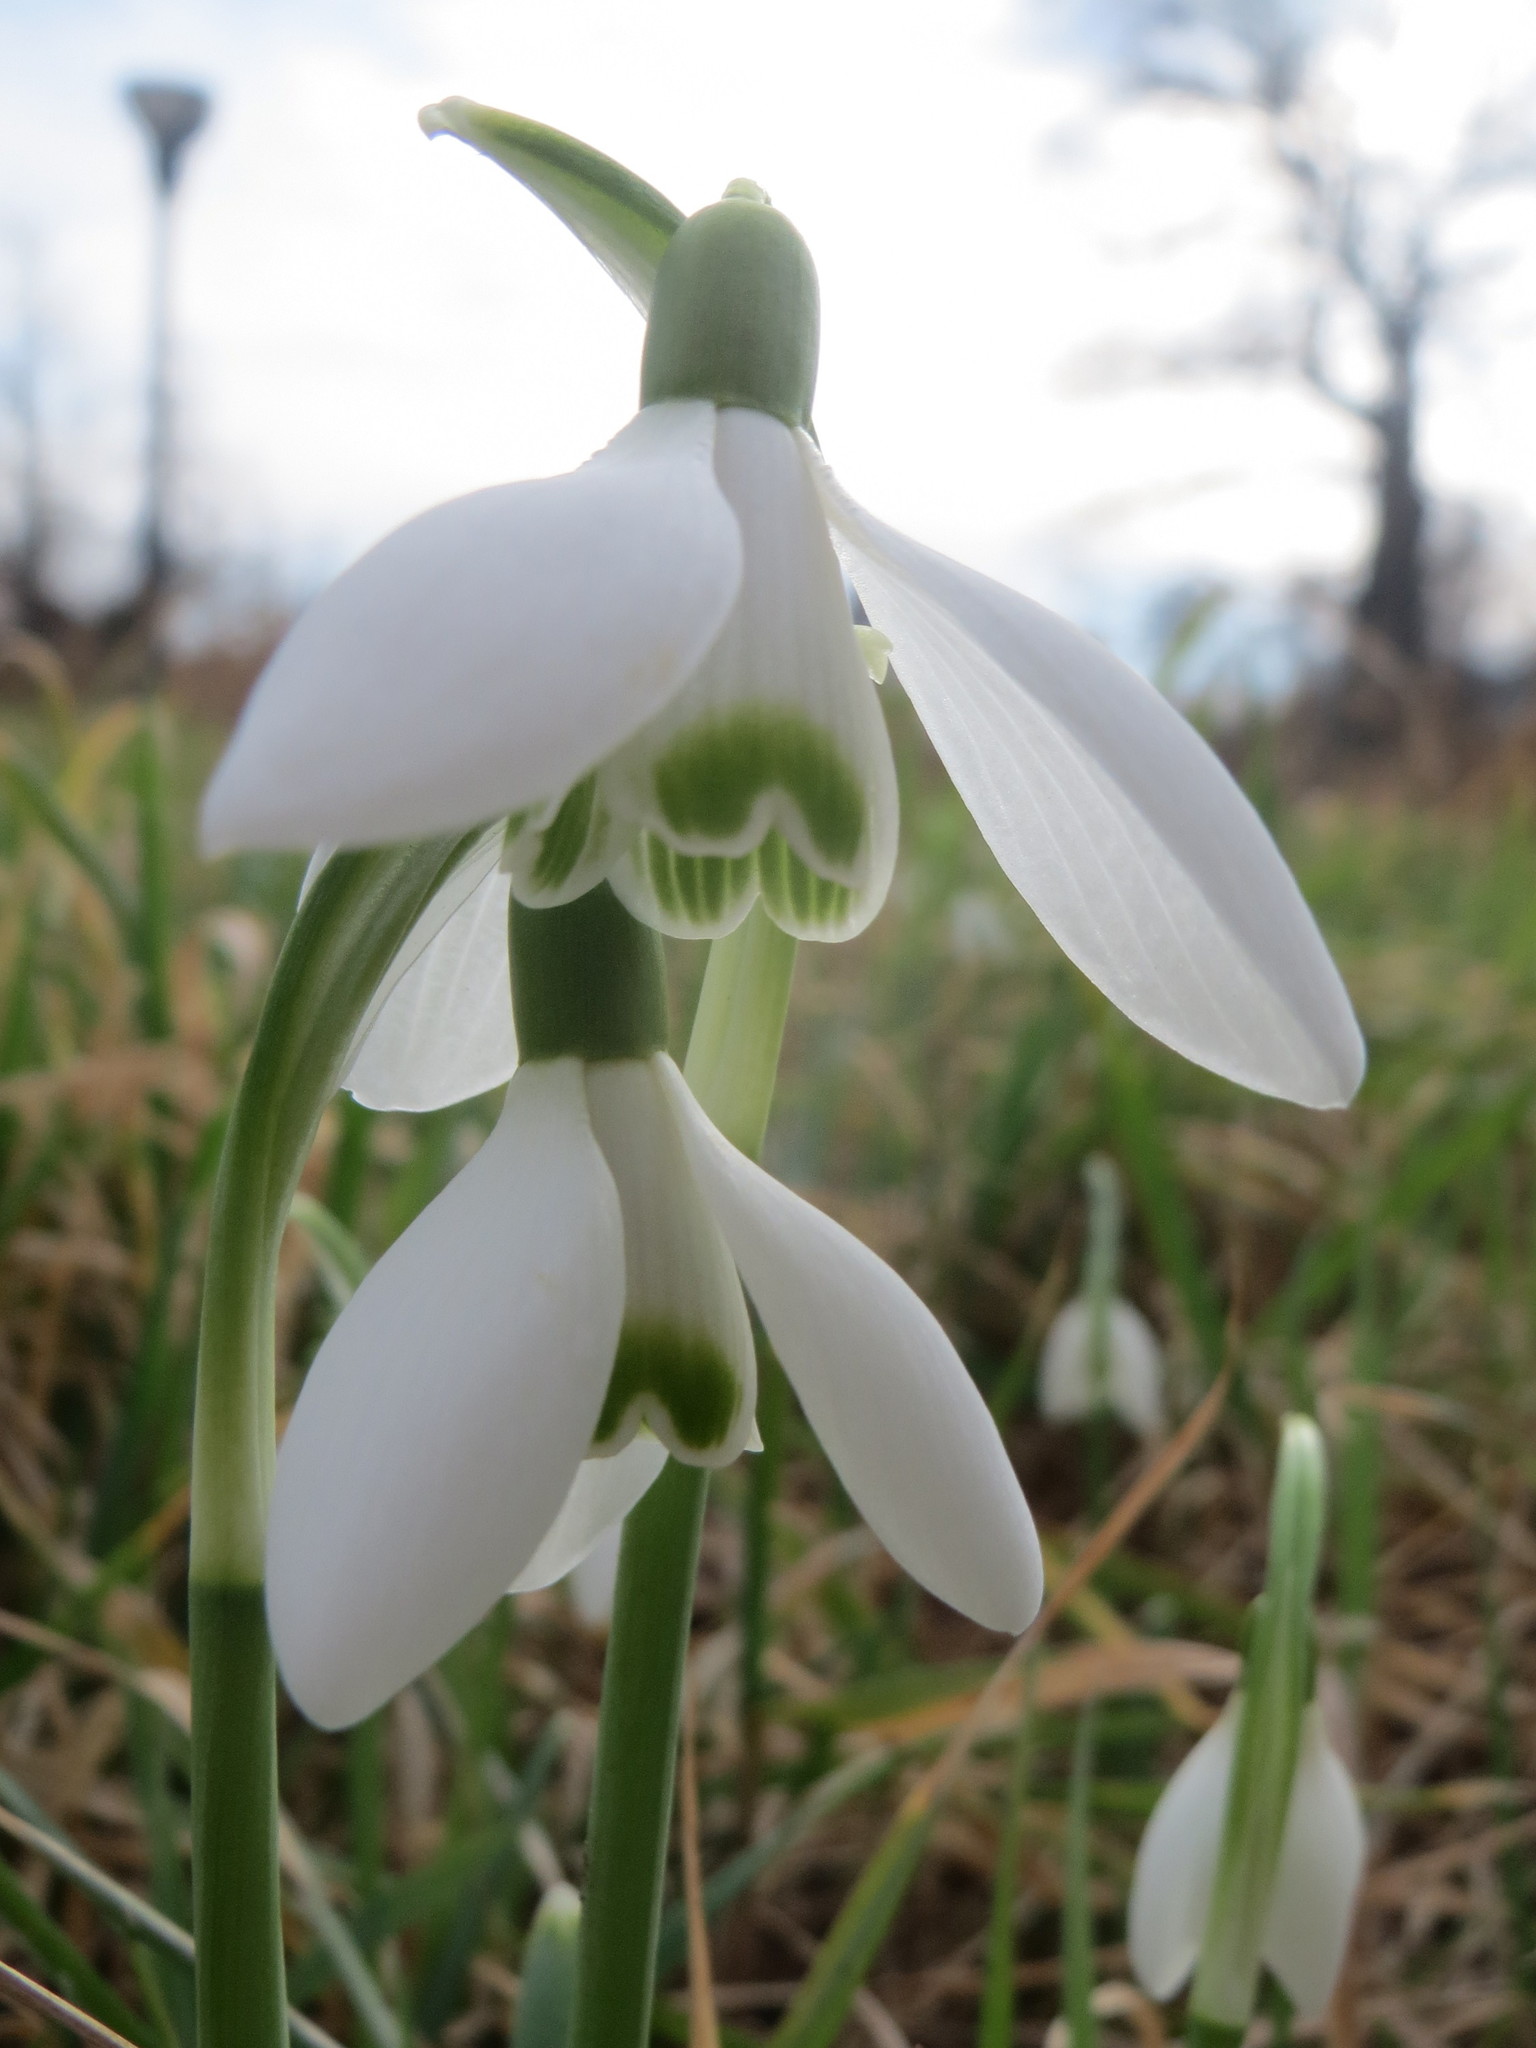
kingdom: Plantae
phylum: Tracheophyta
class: Liliopsida
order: Asparagales
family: Amaryllidaceae
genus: Galanthus
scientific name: Galanthus nivalis
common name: Snowdrop
